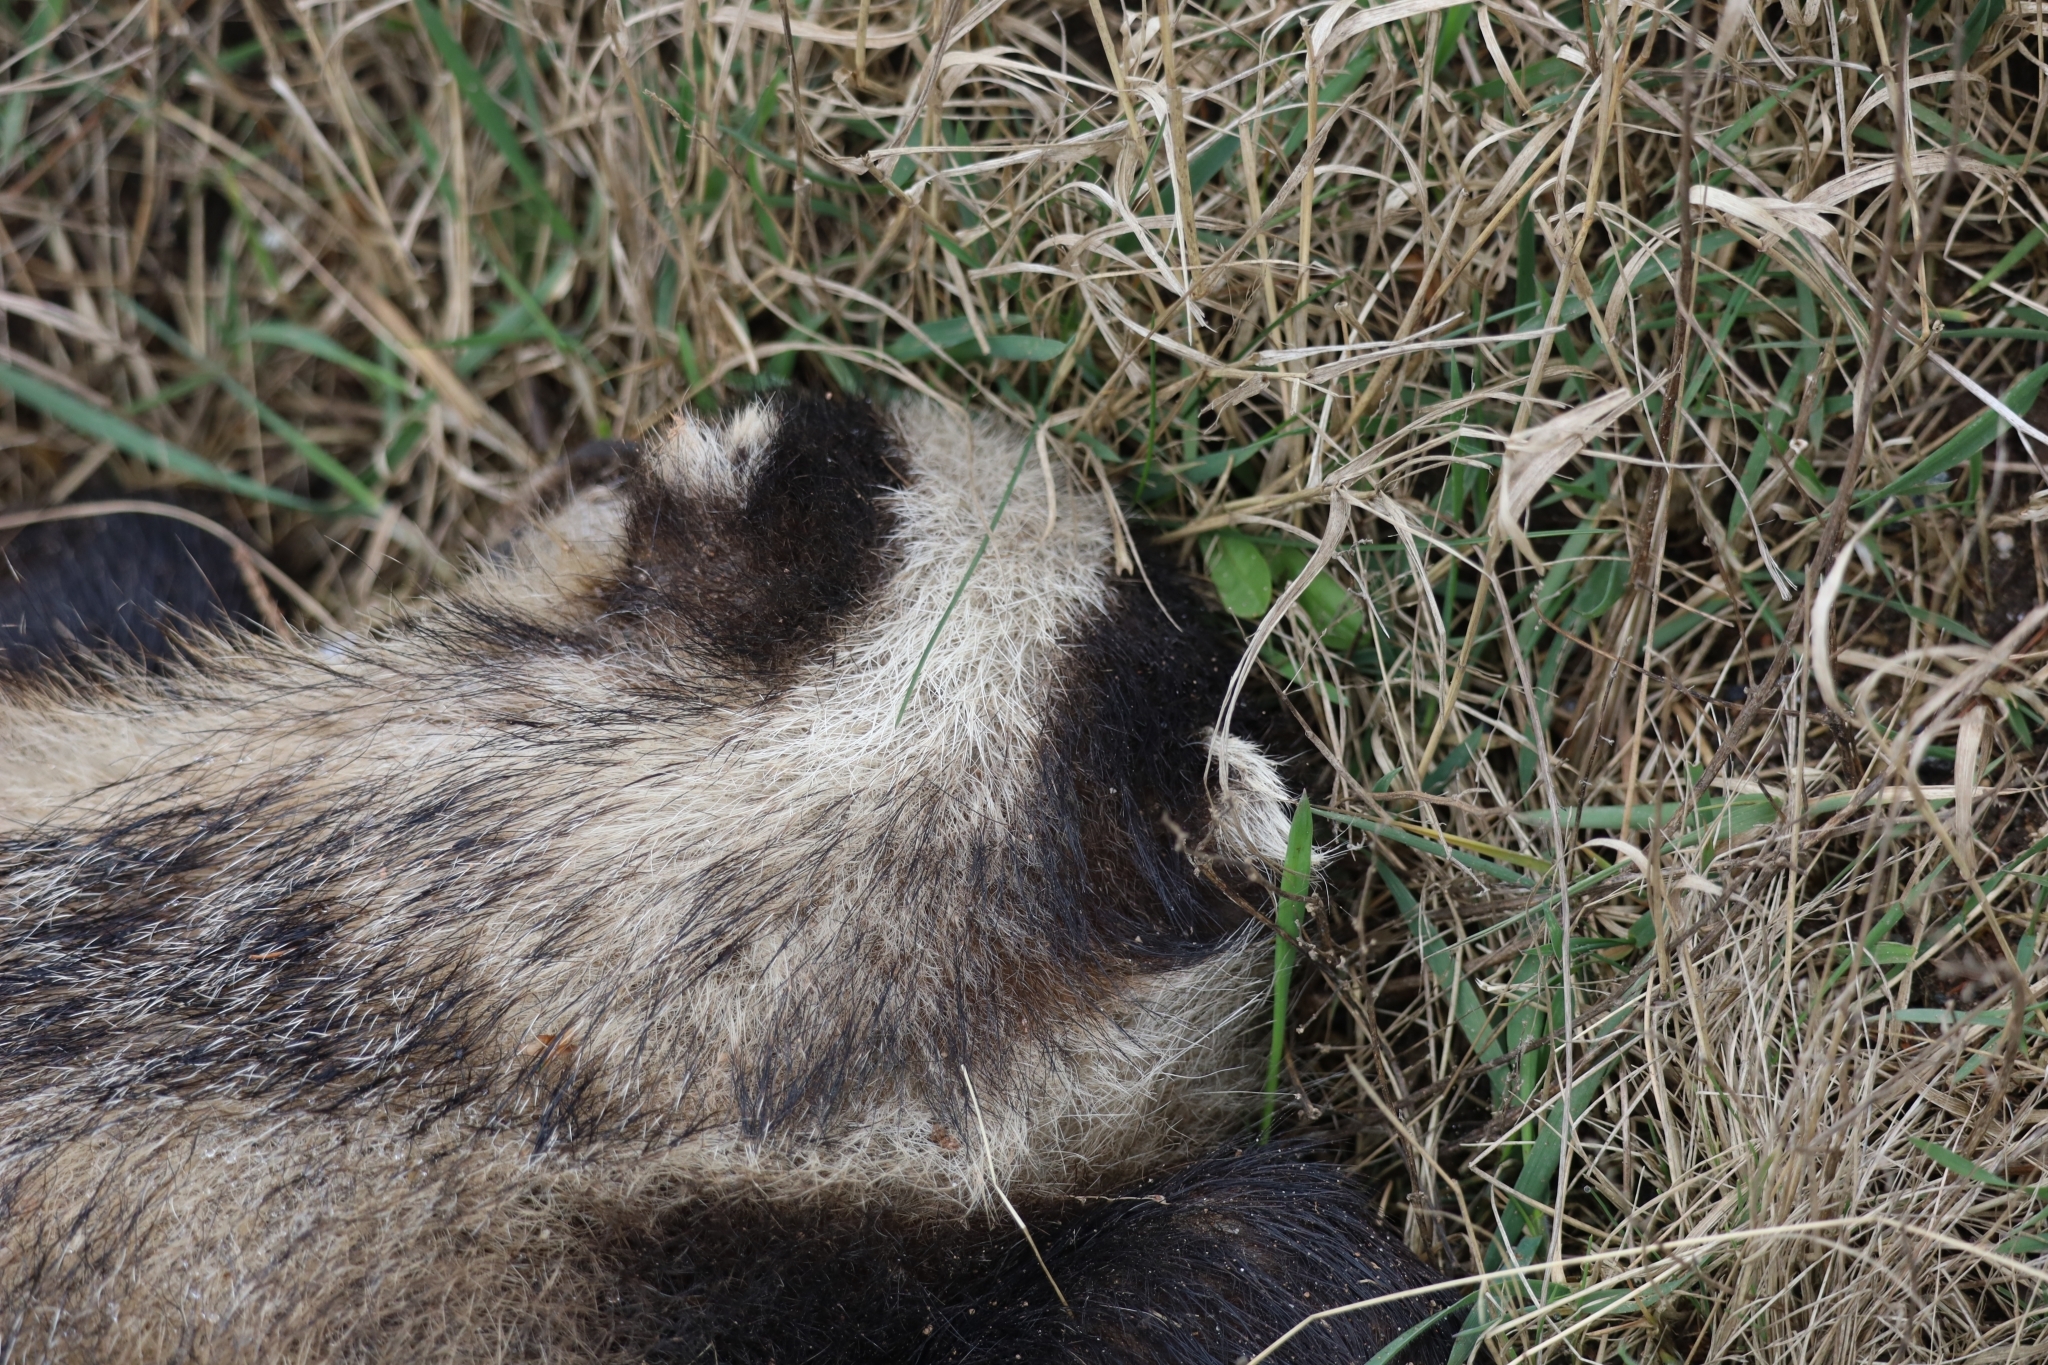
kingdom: Animalia
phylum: Chordata
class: Mammalia
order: Carnivora
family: Mustelidae
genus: Meles
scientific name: Meles meles
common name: Eurasian badger
